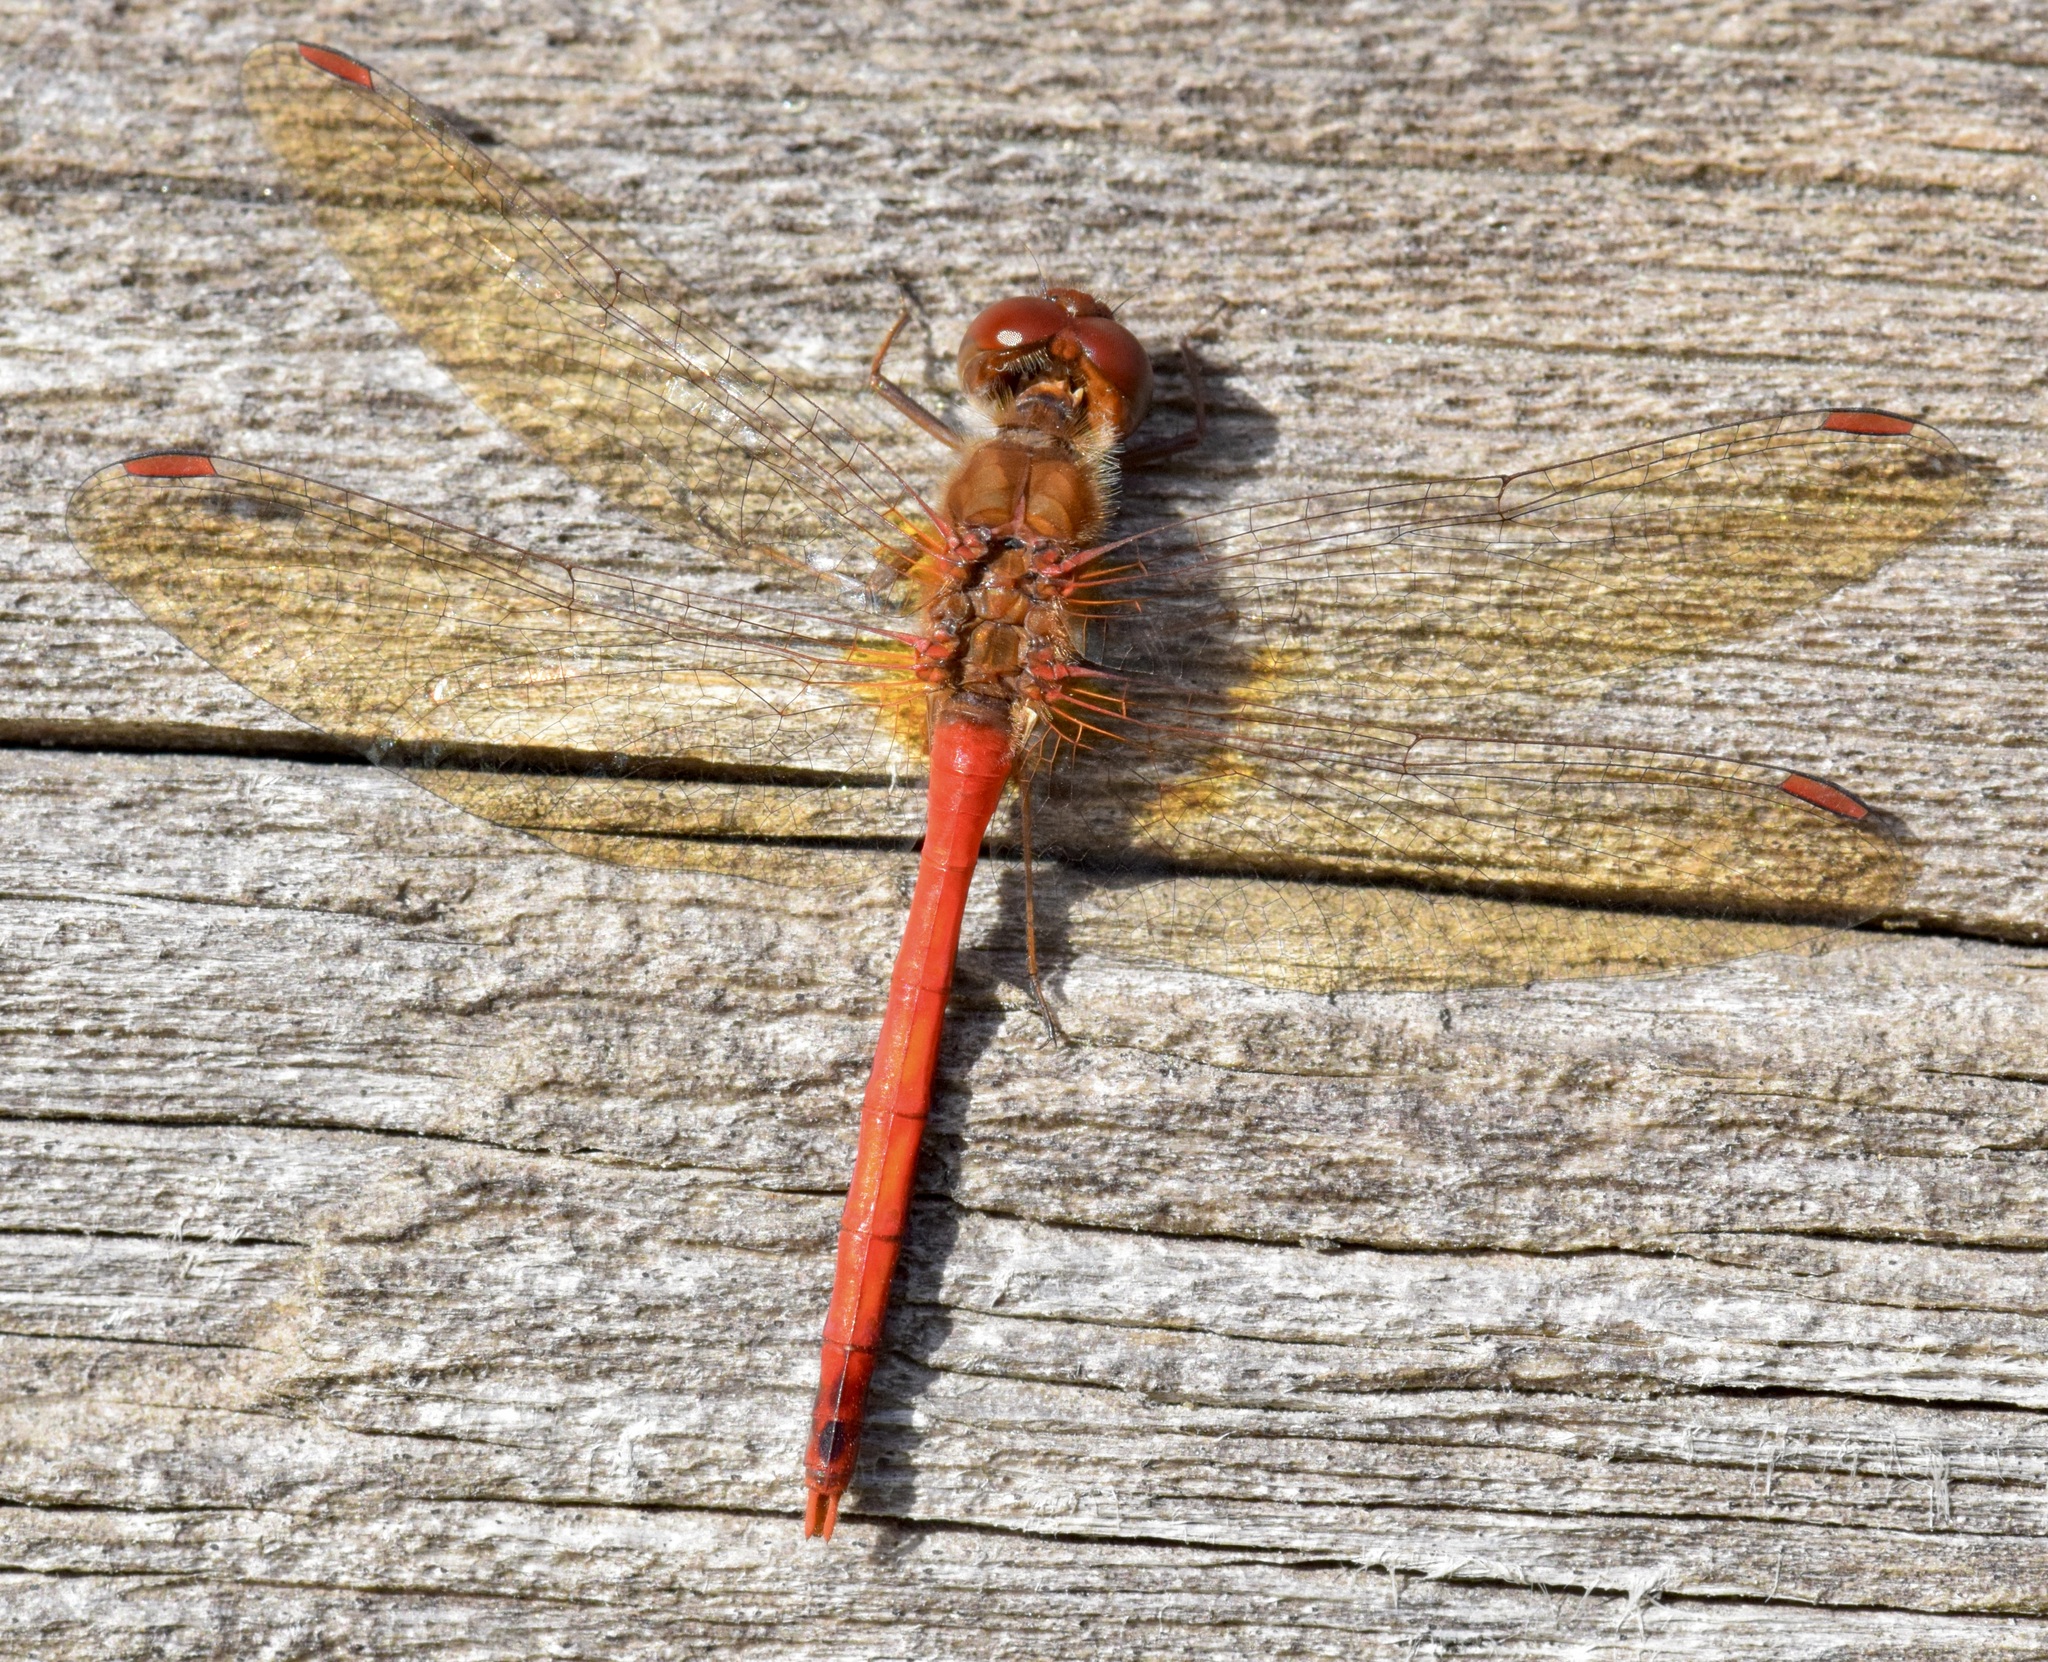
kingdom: Animalia
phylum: Arthropoda
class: Insecta
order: Odonata
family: Libellulidae
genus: Sympetrum
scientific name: Sympetrum vicinum
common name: Autumn meadowhawk
